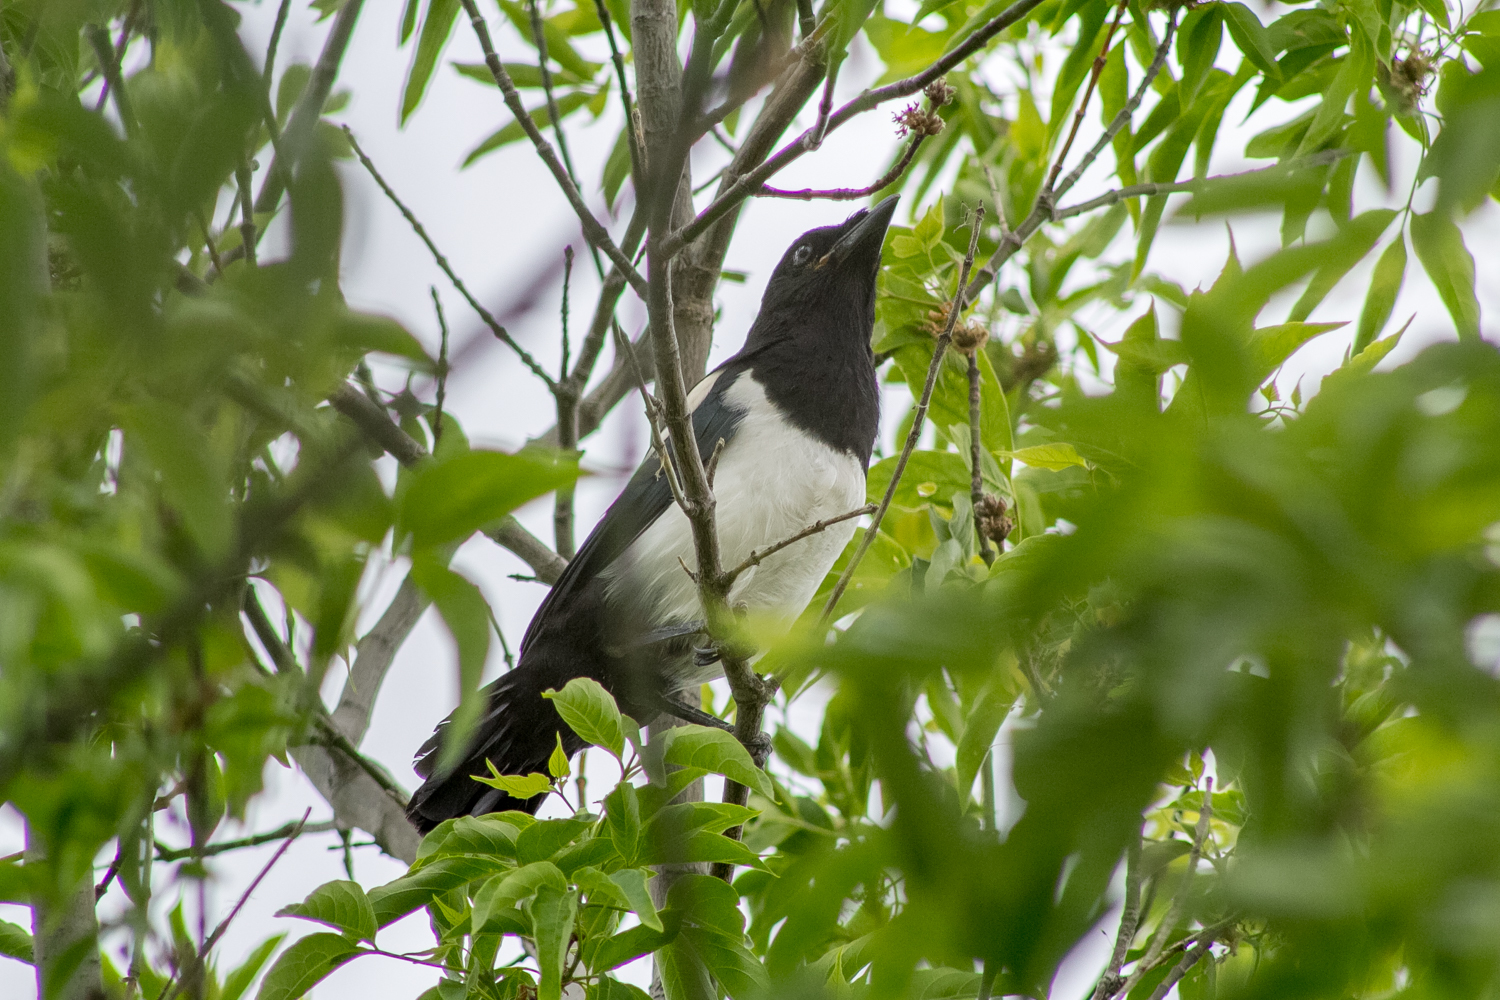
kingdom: Animalia
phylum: Chordata
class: Aves
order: Passeriformes
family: Corvidae
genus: Pica
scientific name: Pica pica
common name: Eurasian magpie
